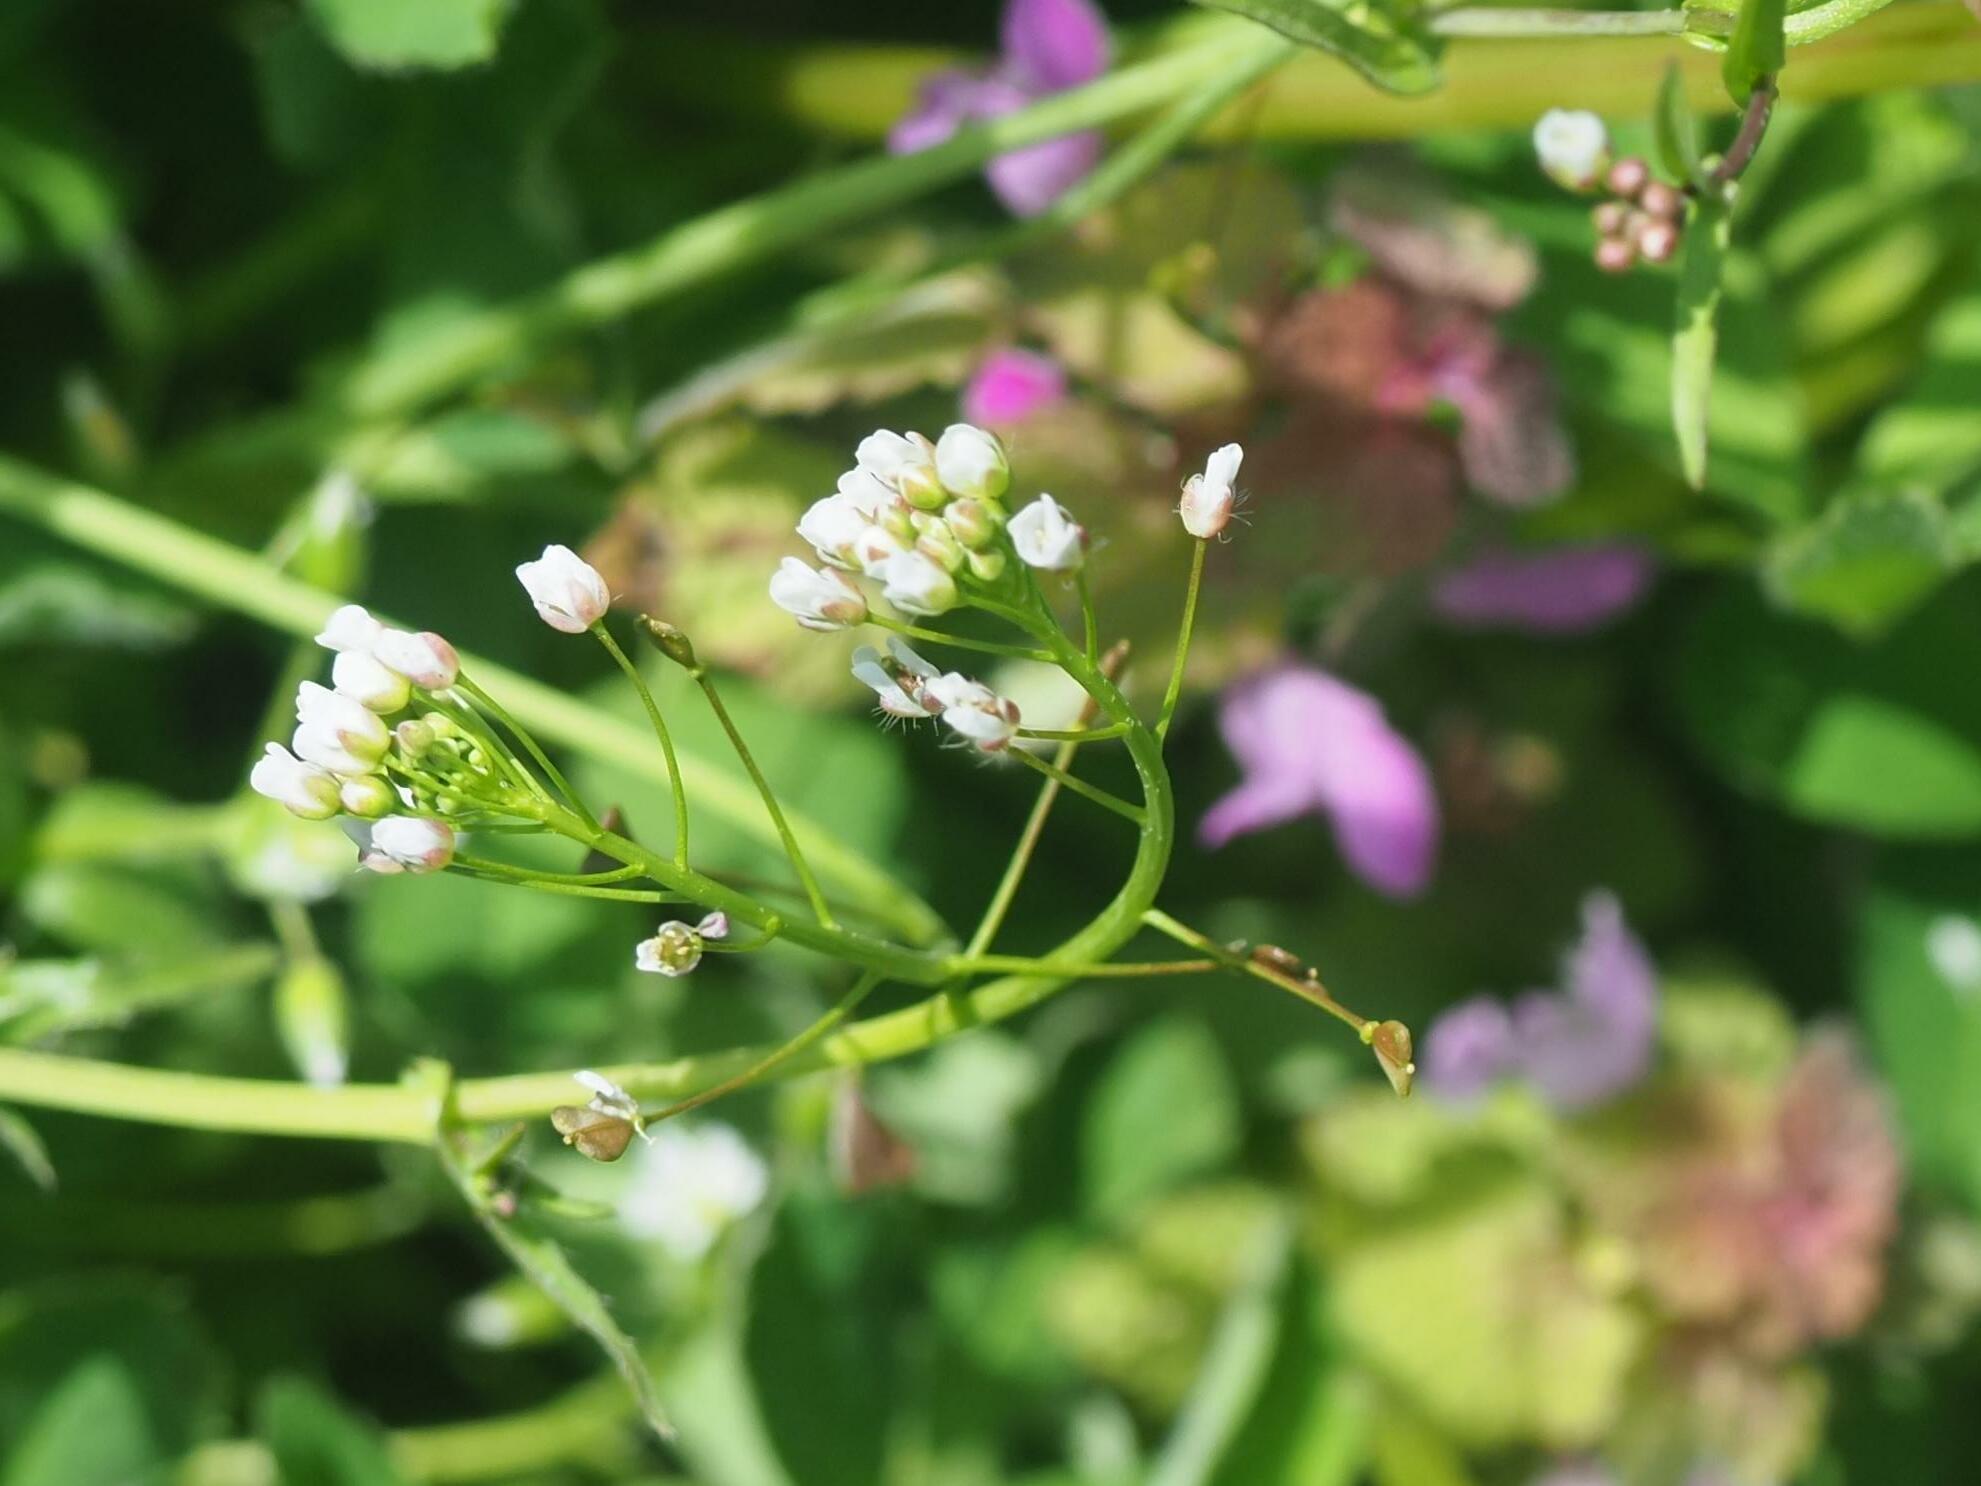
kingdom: Plantae
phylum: Tracheophyta
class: Magnoliopsida
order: Brassicales
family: Brassicaceae
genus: Capsella
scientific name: Capsella bursa-pastoris
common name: Shepherd's purse
